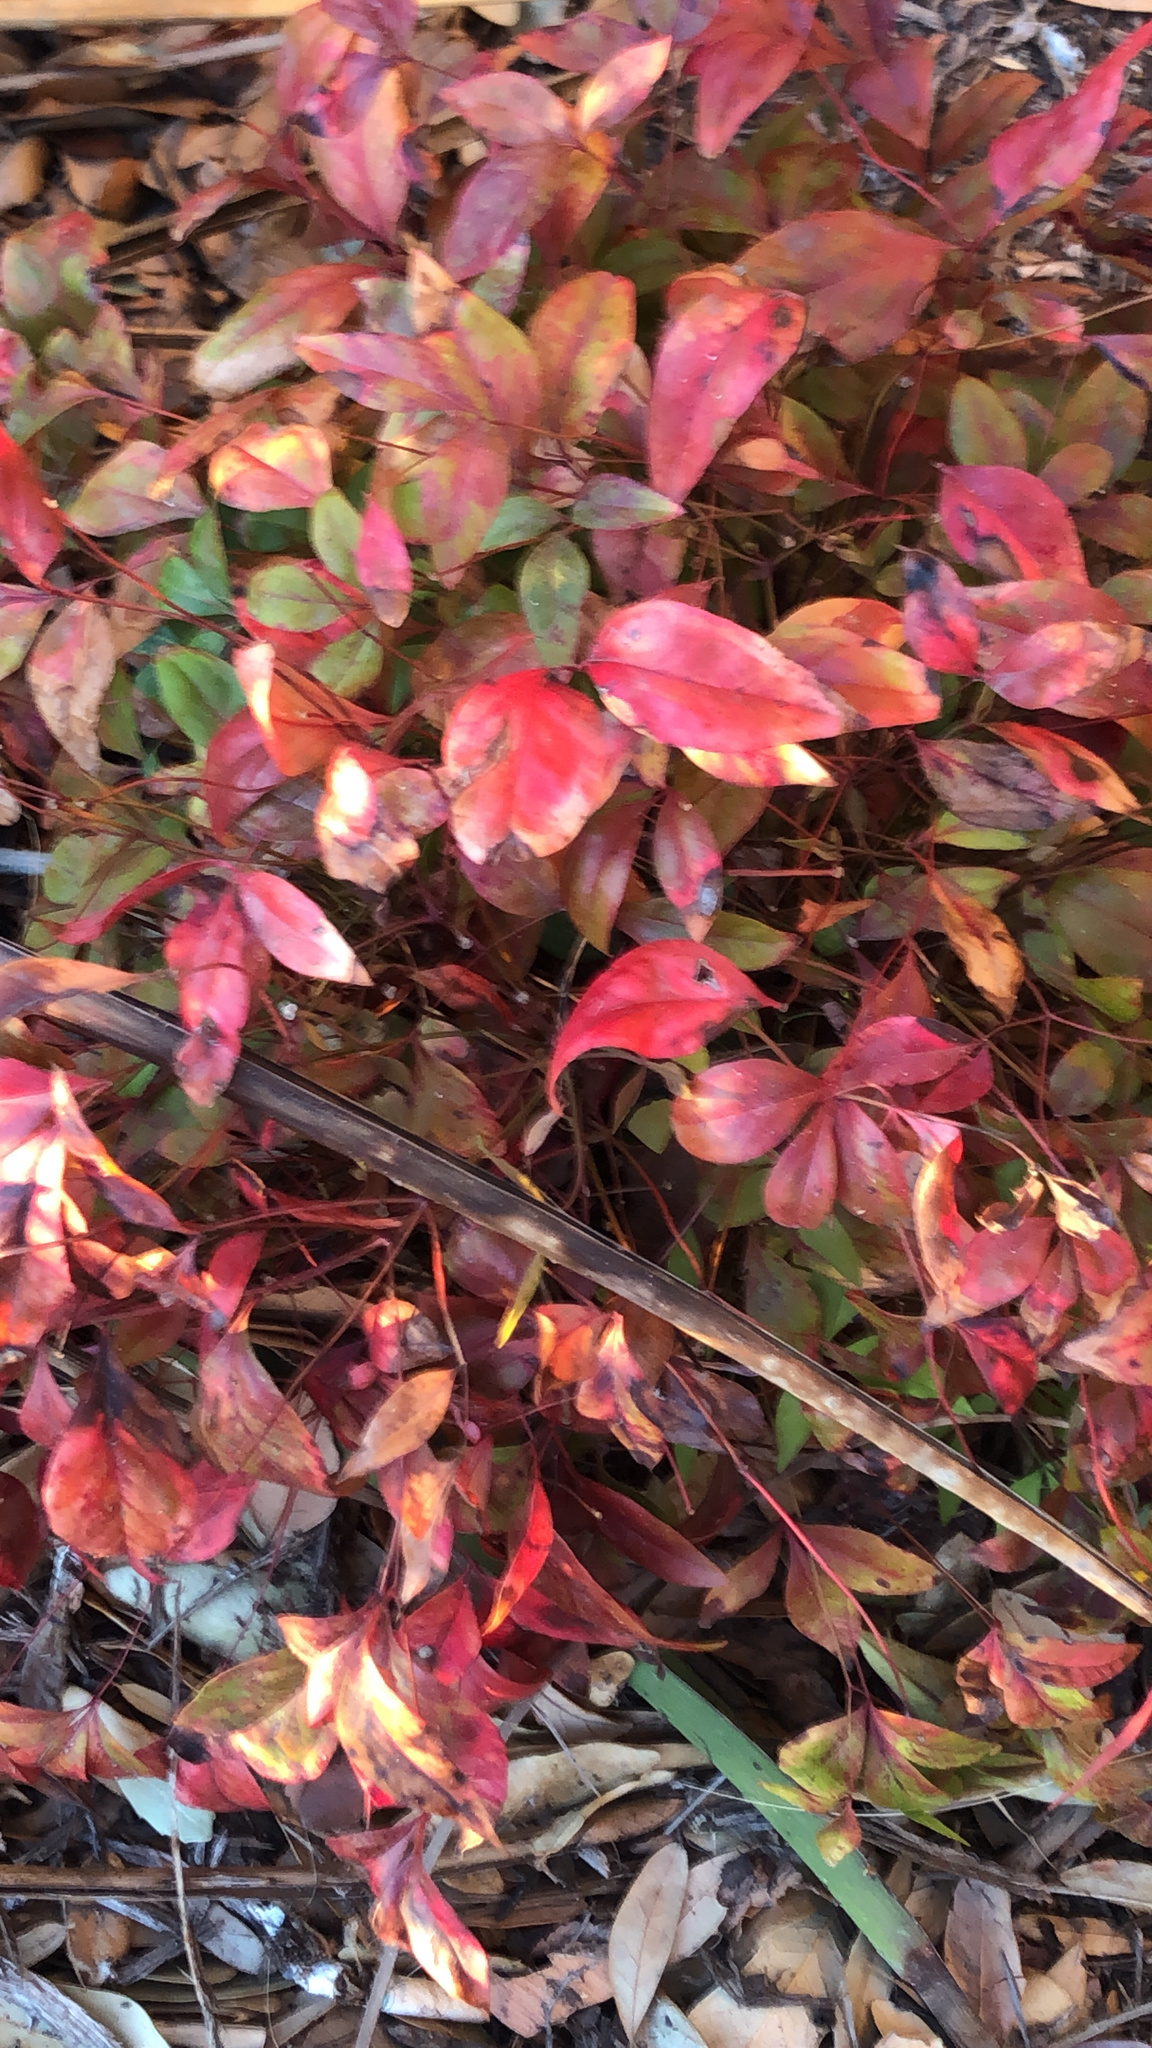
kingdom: Plantae
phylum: Tracheophyta
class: Magnoliopsida
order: Ranunculales
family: Berberidaceae
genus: Nandina
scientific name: Nandina domestica
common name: Sacred bamboo
